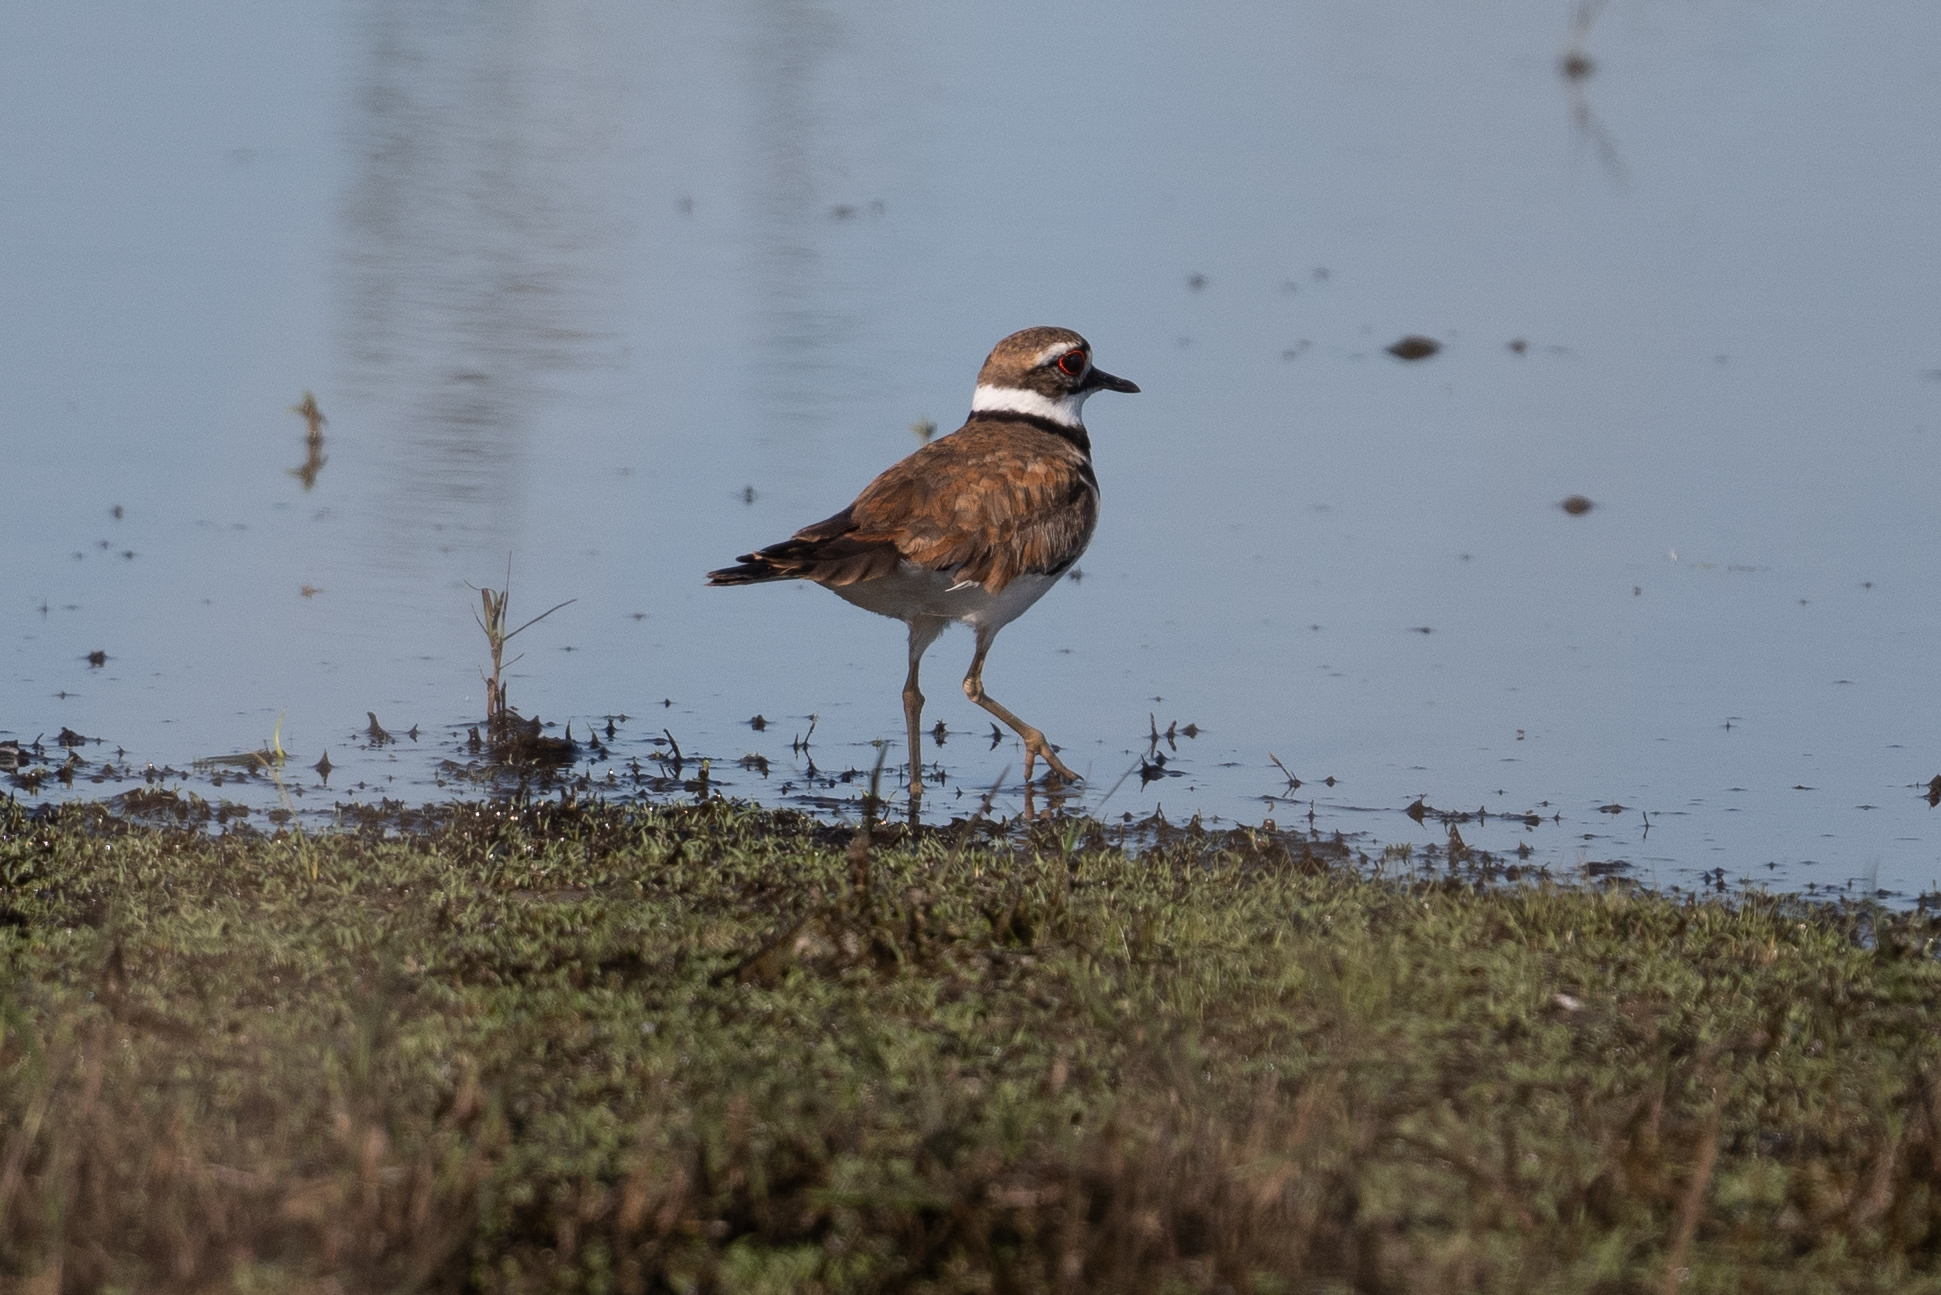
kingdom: Animalia
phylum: Chordata
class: Aves
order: Charadriiformes
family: Charadriidae
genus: Charadrius
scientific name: Charadrius vociferus
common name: Killdeer
